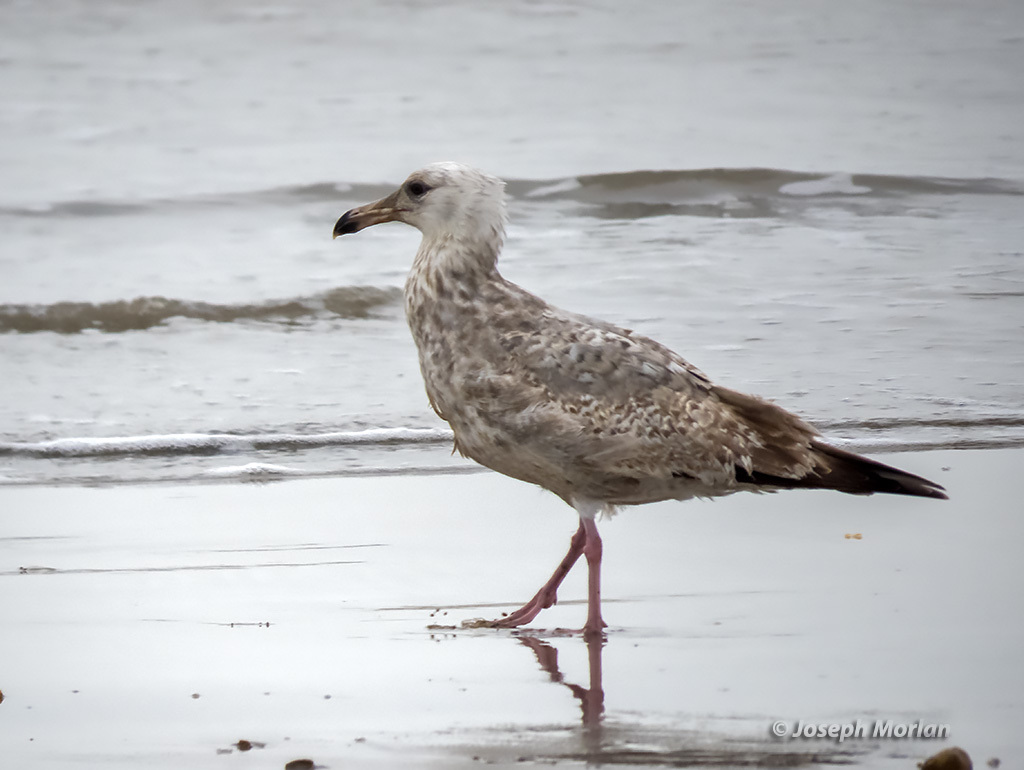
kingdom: Animalia
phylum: Chordata
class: Aves
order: Charadriiformes
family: Laridae
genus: Larus
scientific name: Larus argentatus
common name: Herring gull
